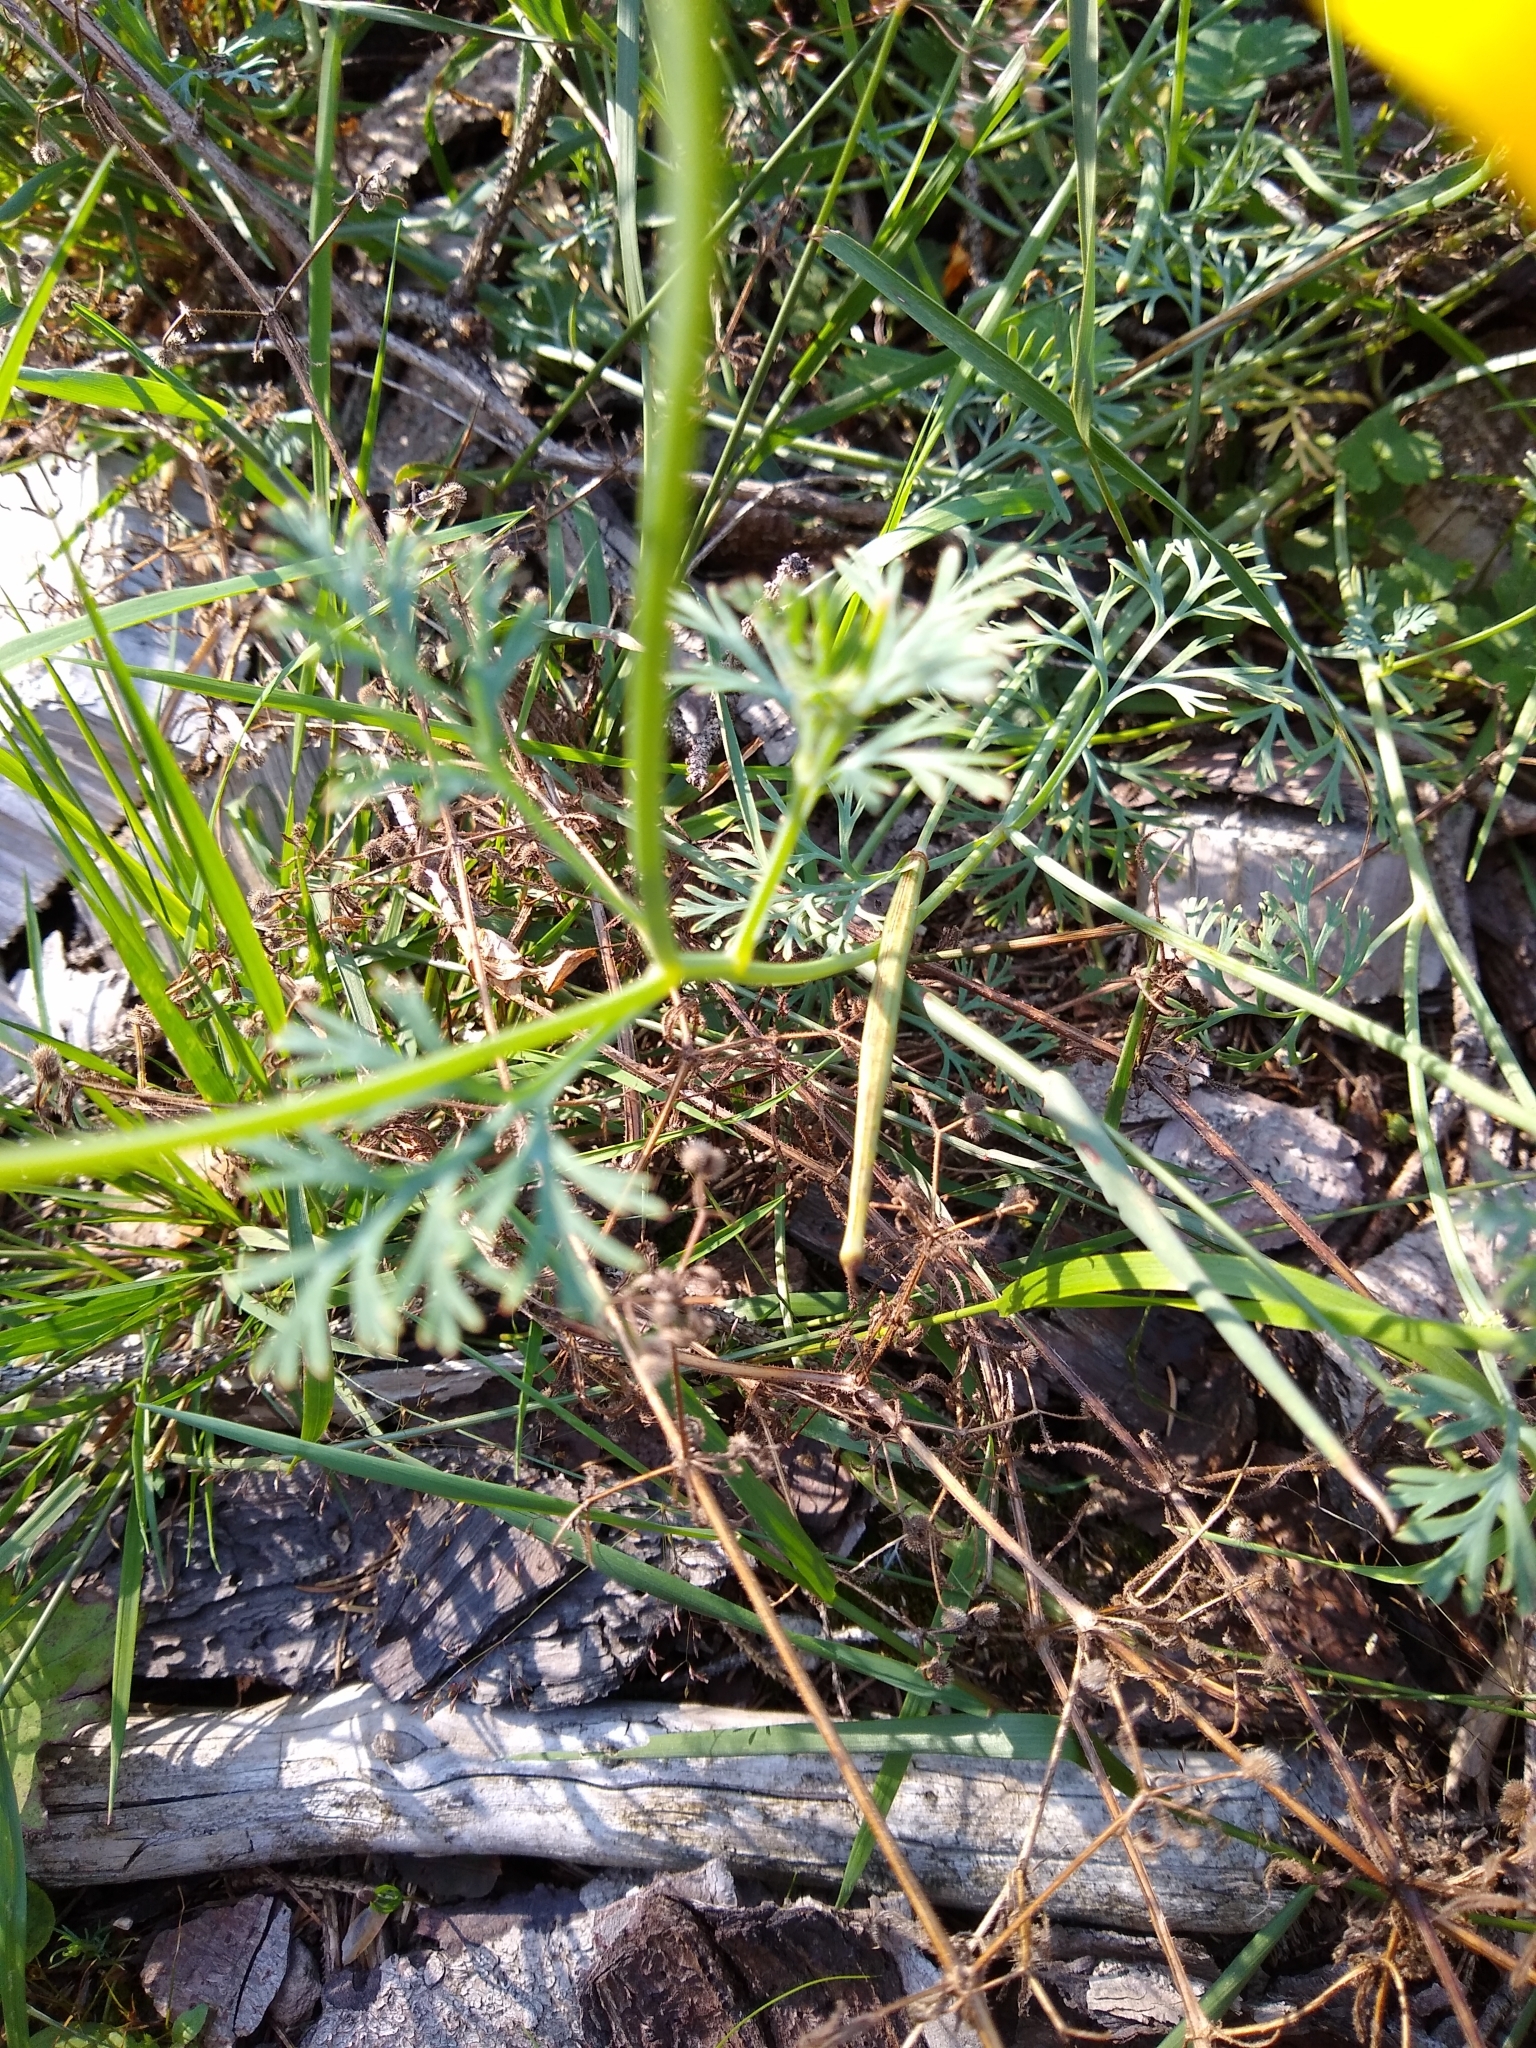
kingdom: Plantae
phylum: Tracheophyta
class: Magnoliopsida
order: Ranunculales
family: Papaveraceae
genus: Eschscholzia
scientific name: Eschscholzia californica
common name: California poppy
